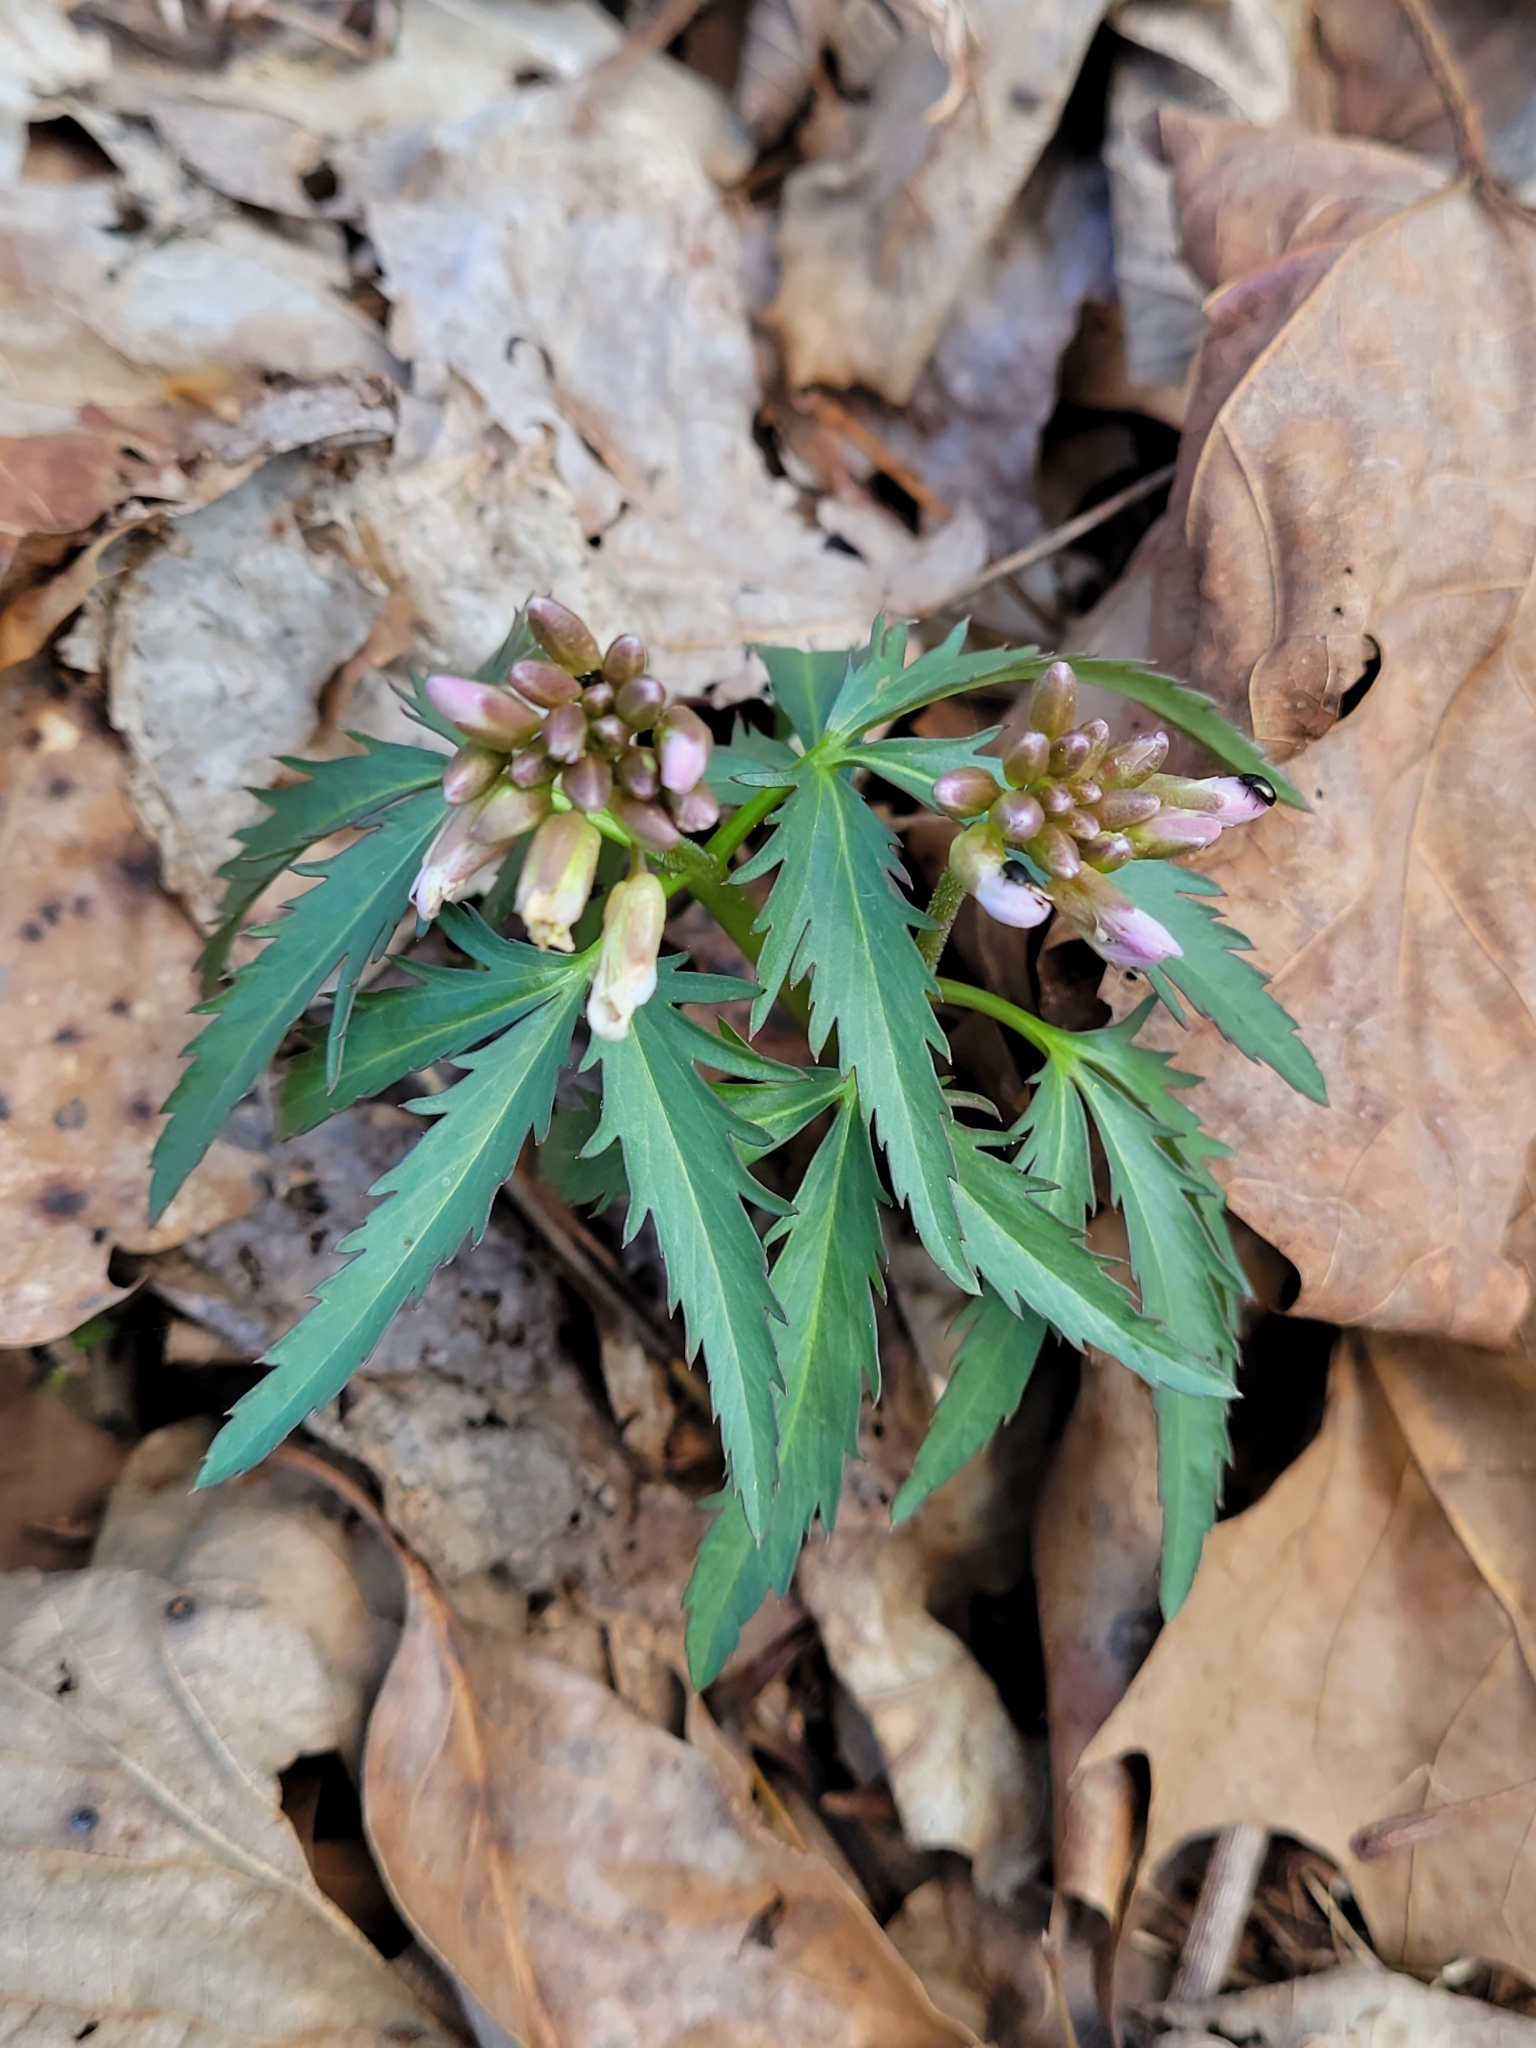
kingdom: Plantae
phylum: Tracheophyta
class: Magnoliopsida
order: Brassicales
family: Brassicaceae
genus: Cardamine
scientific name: Cardamine concatenata
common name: Cut-leaf toothcup
